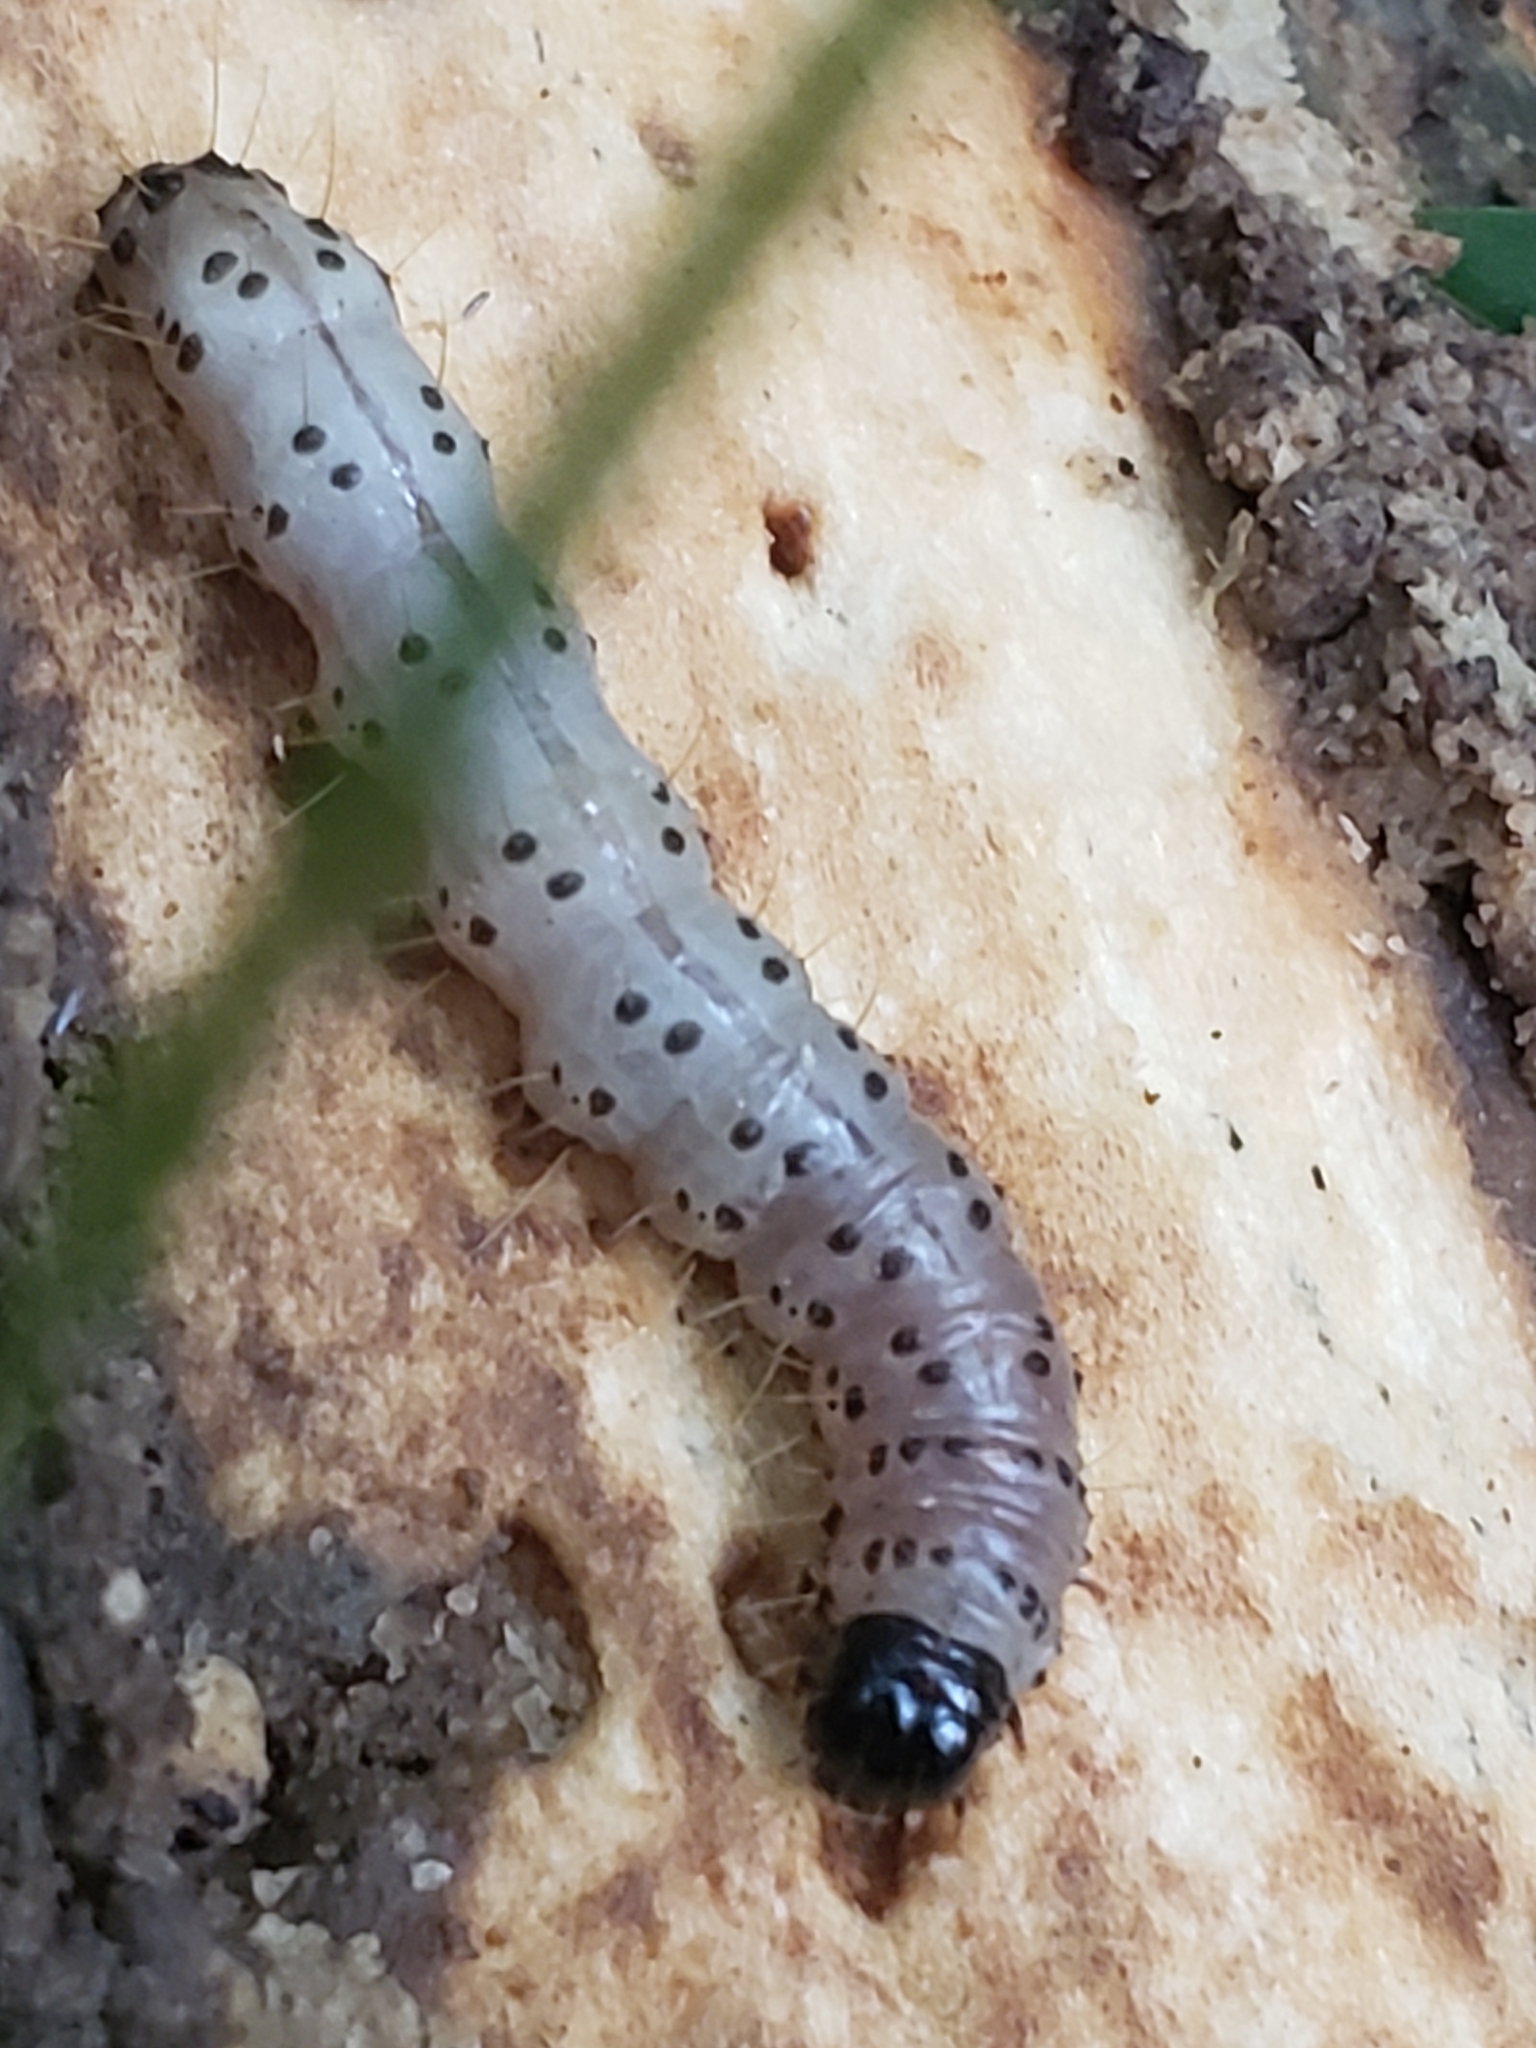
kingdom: Animalia
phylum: Arthropoda
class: Insecta
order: Lepidoptera
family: Erebidae
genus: Scolecocampa
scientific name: Scolecocampa liburna
